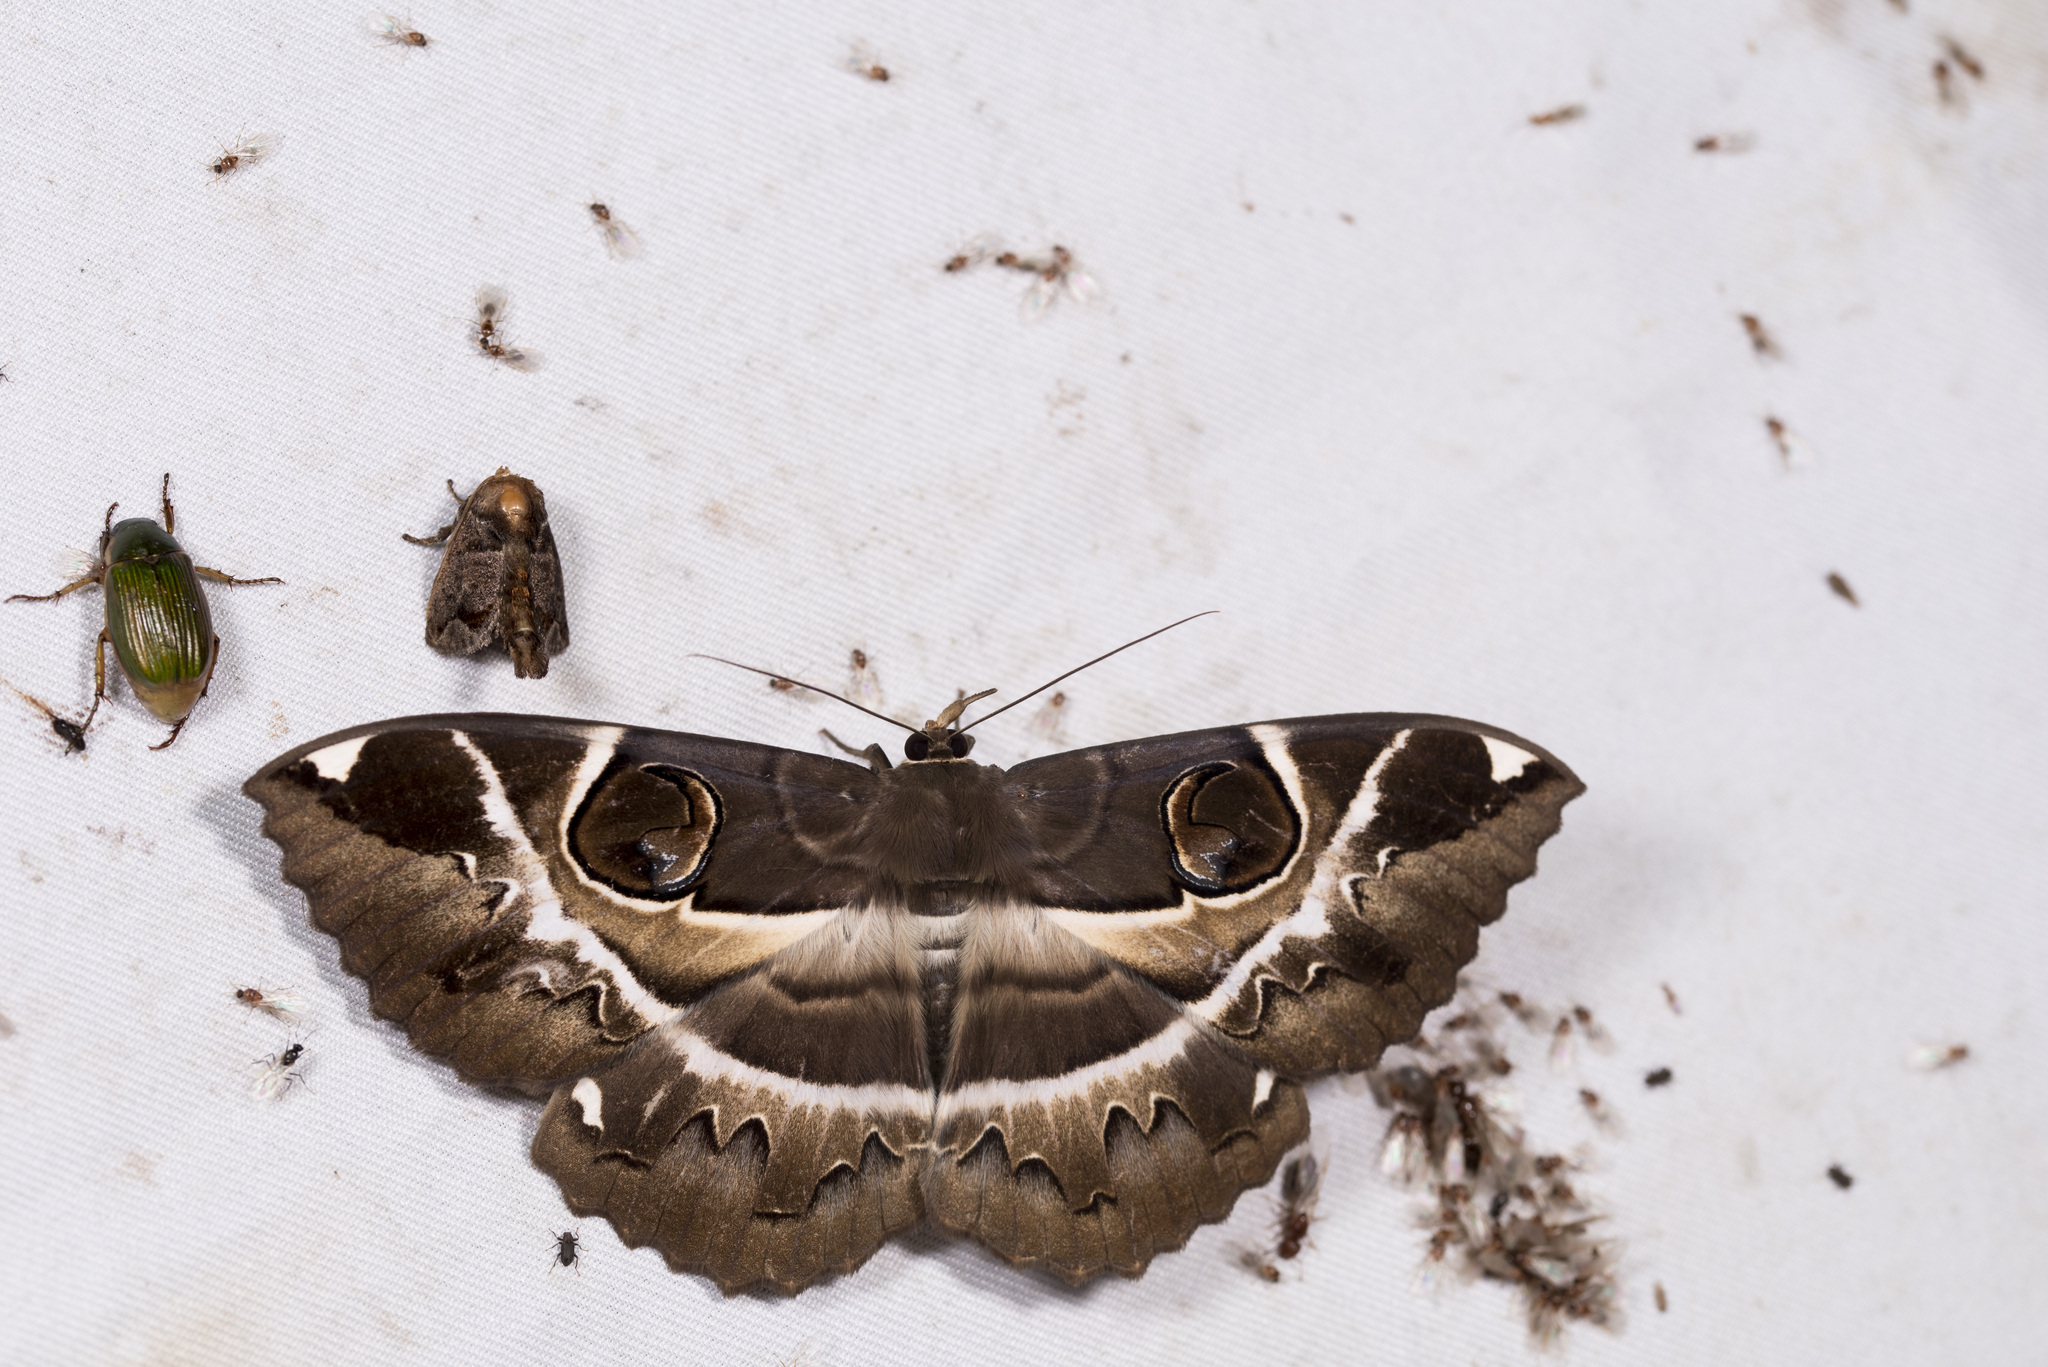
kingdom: Animalia
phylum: Arthropoda
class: Insecta
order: Lepidoptera
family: Erebidae
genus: Erebus
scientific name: Erebus ephesperis
